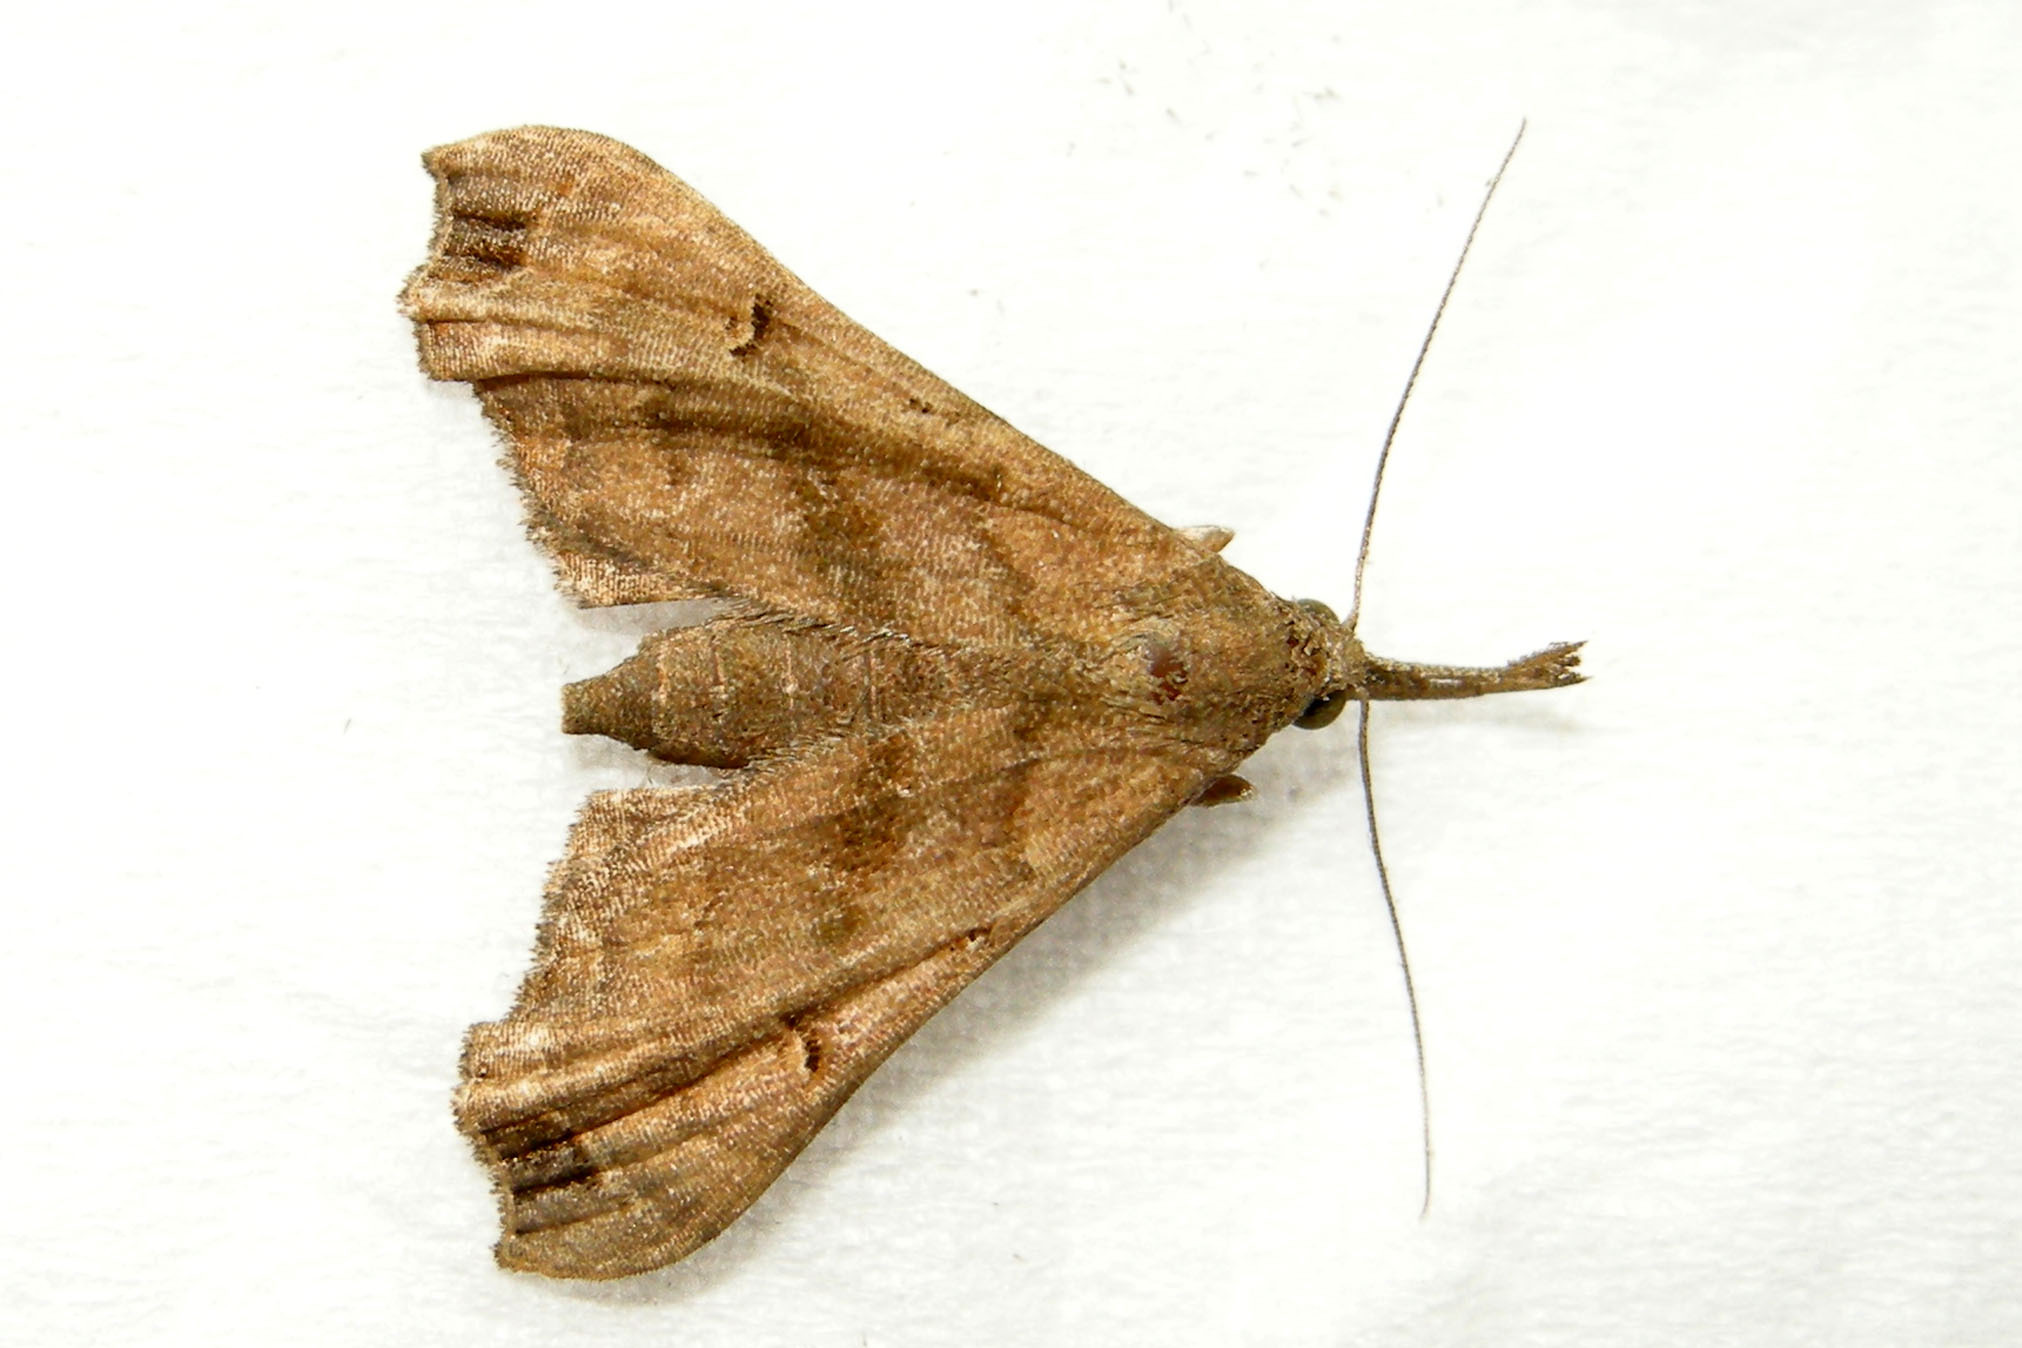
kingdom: Animalia
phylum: Arthropoda
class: Insecta
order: Lepidoptera
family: Erebidae
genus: Palthis
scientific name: Palthis asopialis
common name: Faint-spotted palthis moth
